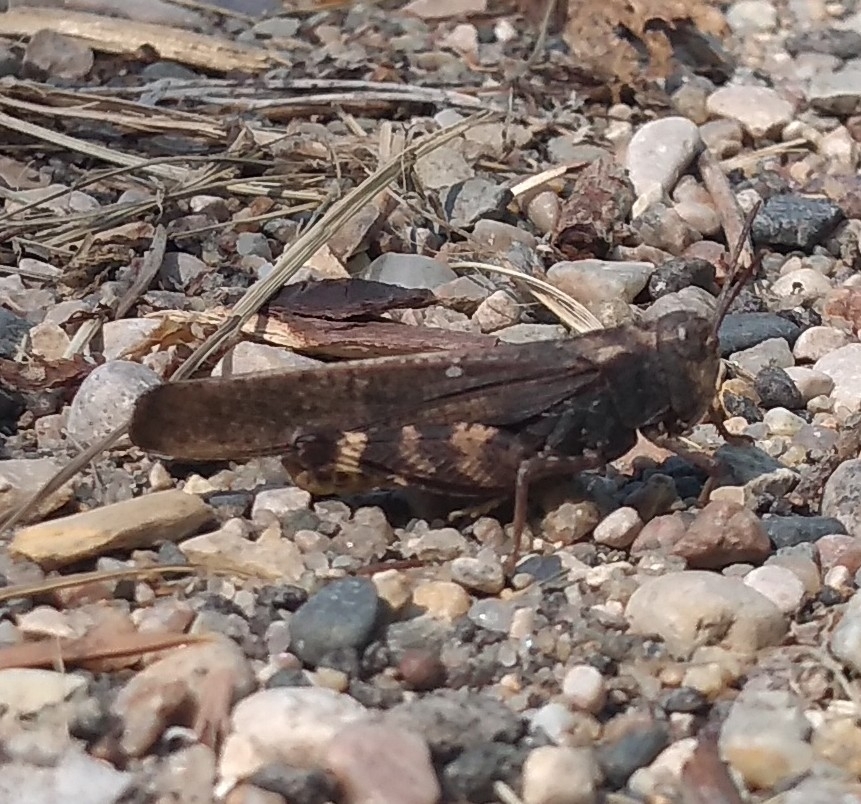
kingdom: Animalia
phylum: Arthropoda
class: Insecta
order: Orthoptera
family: Acrididae
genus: Arphia
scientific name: Arphia conspersa
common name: Speckle-winged rangeland grasshopper
